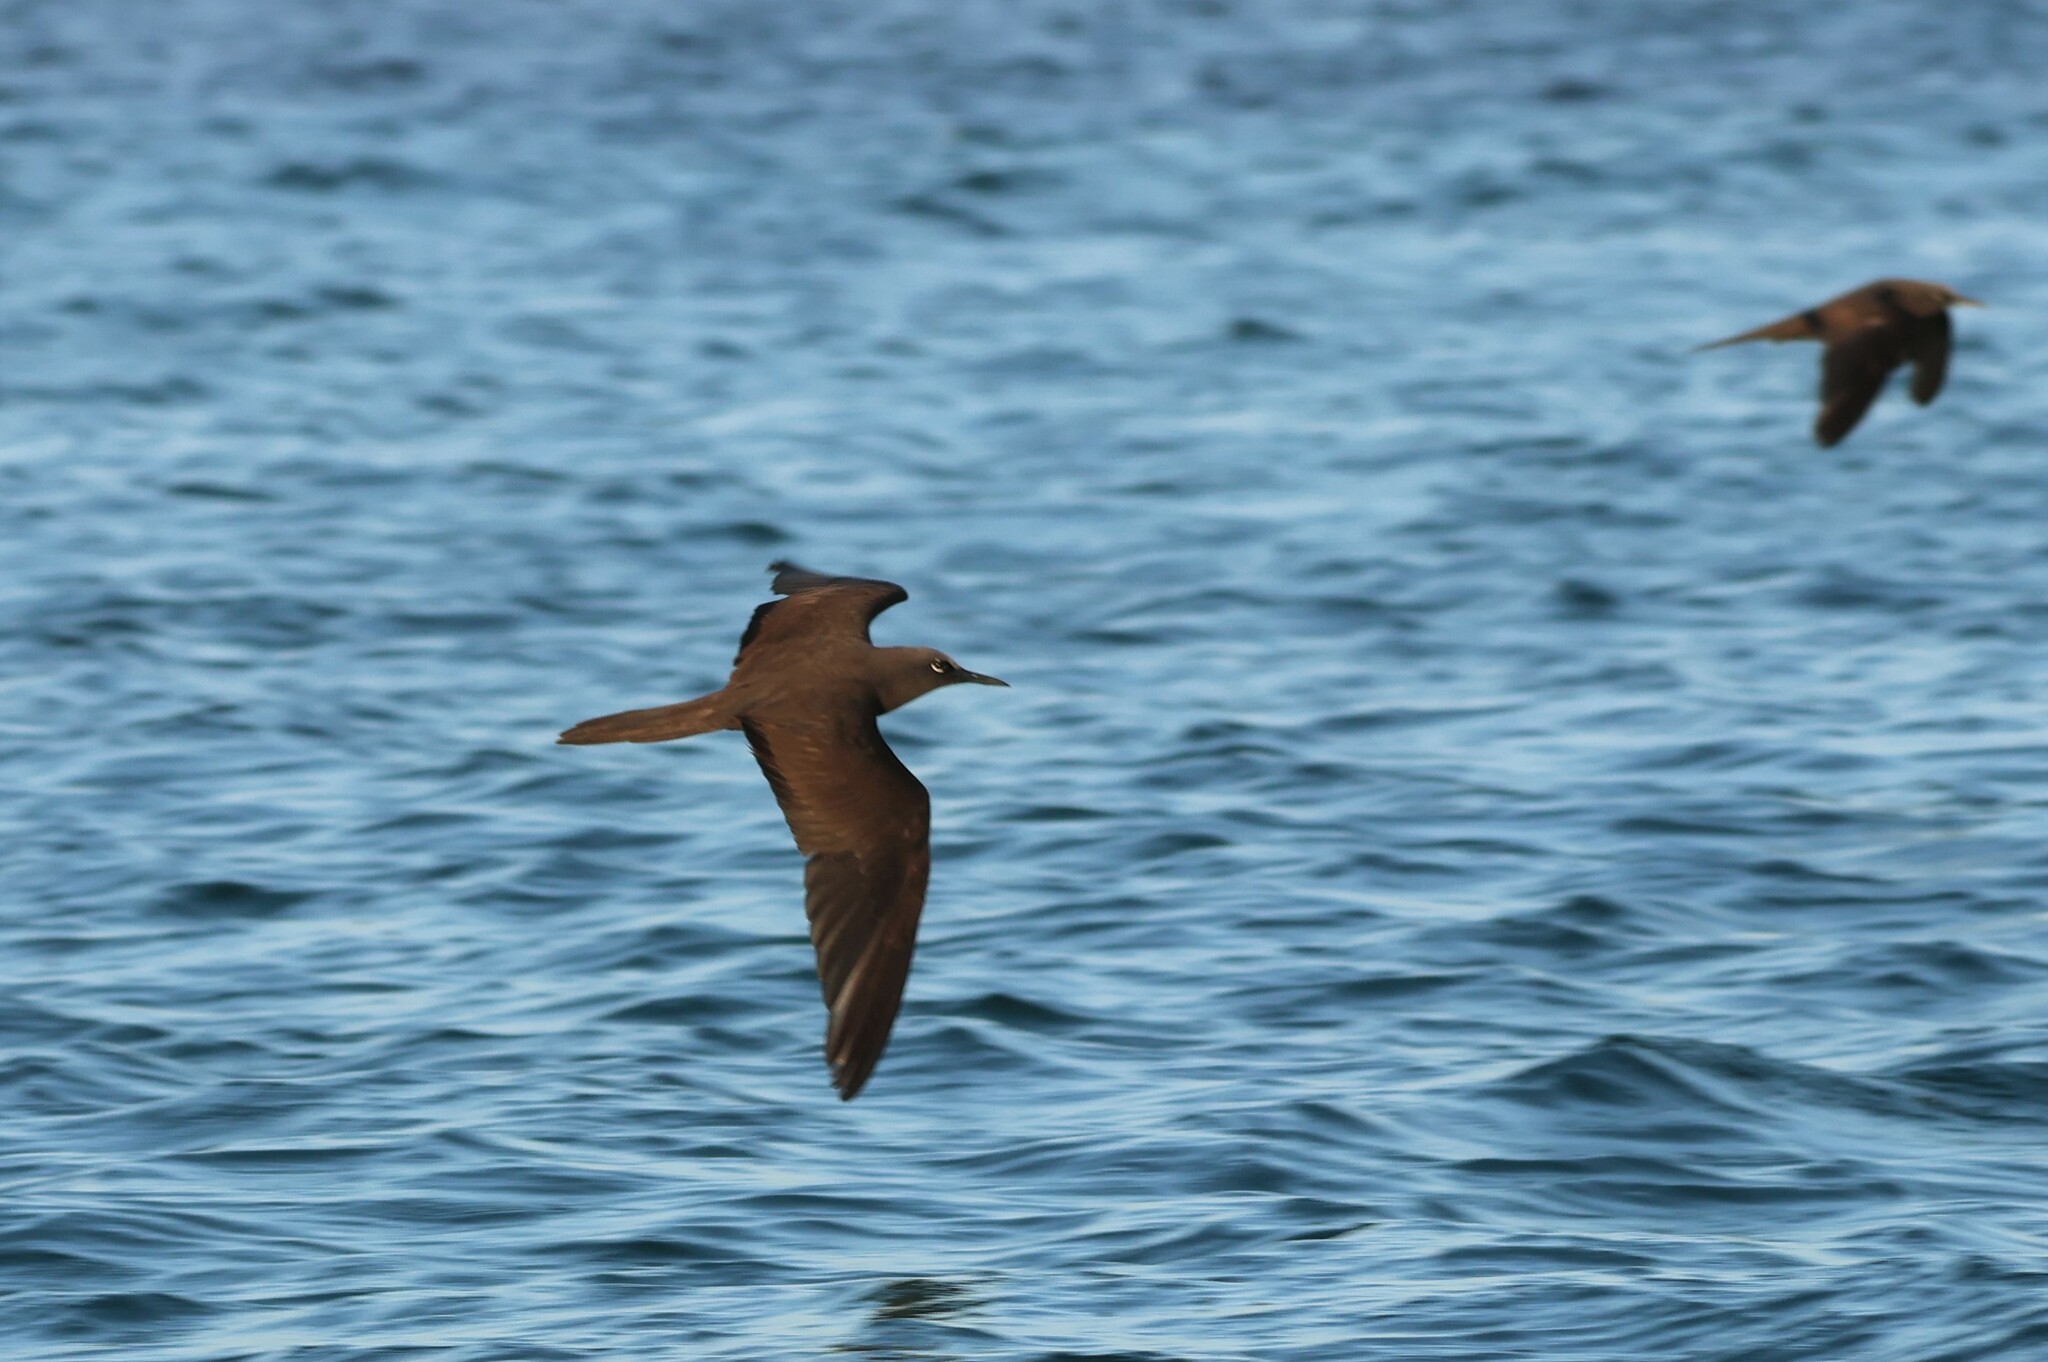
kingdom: Animalia
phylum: Chordata
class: Aves
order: Charadriiformes
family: Laridae
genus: Anous
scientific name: Anous stolidus
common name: Brown noddy
